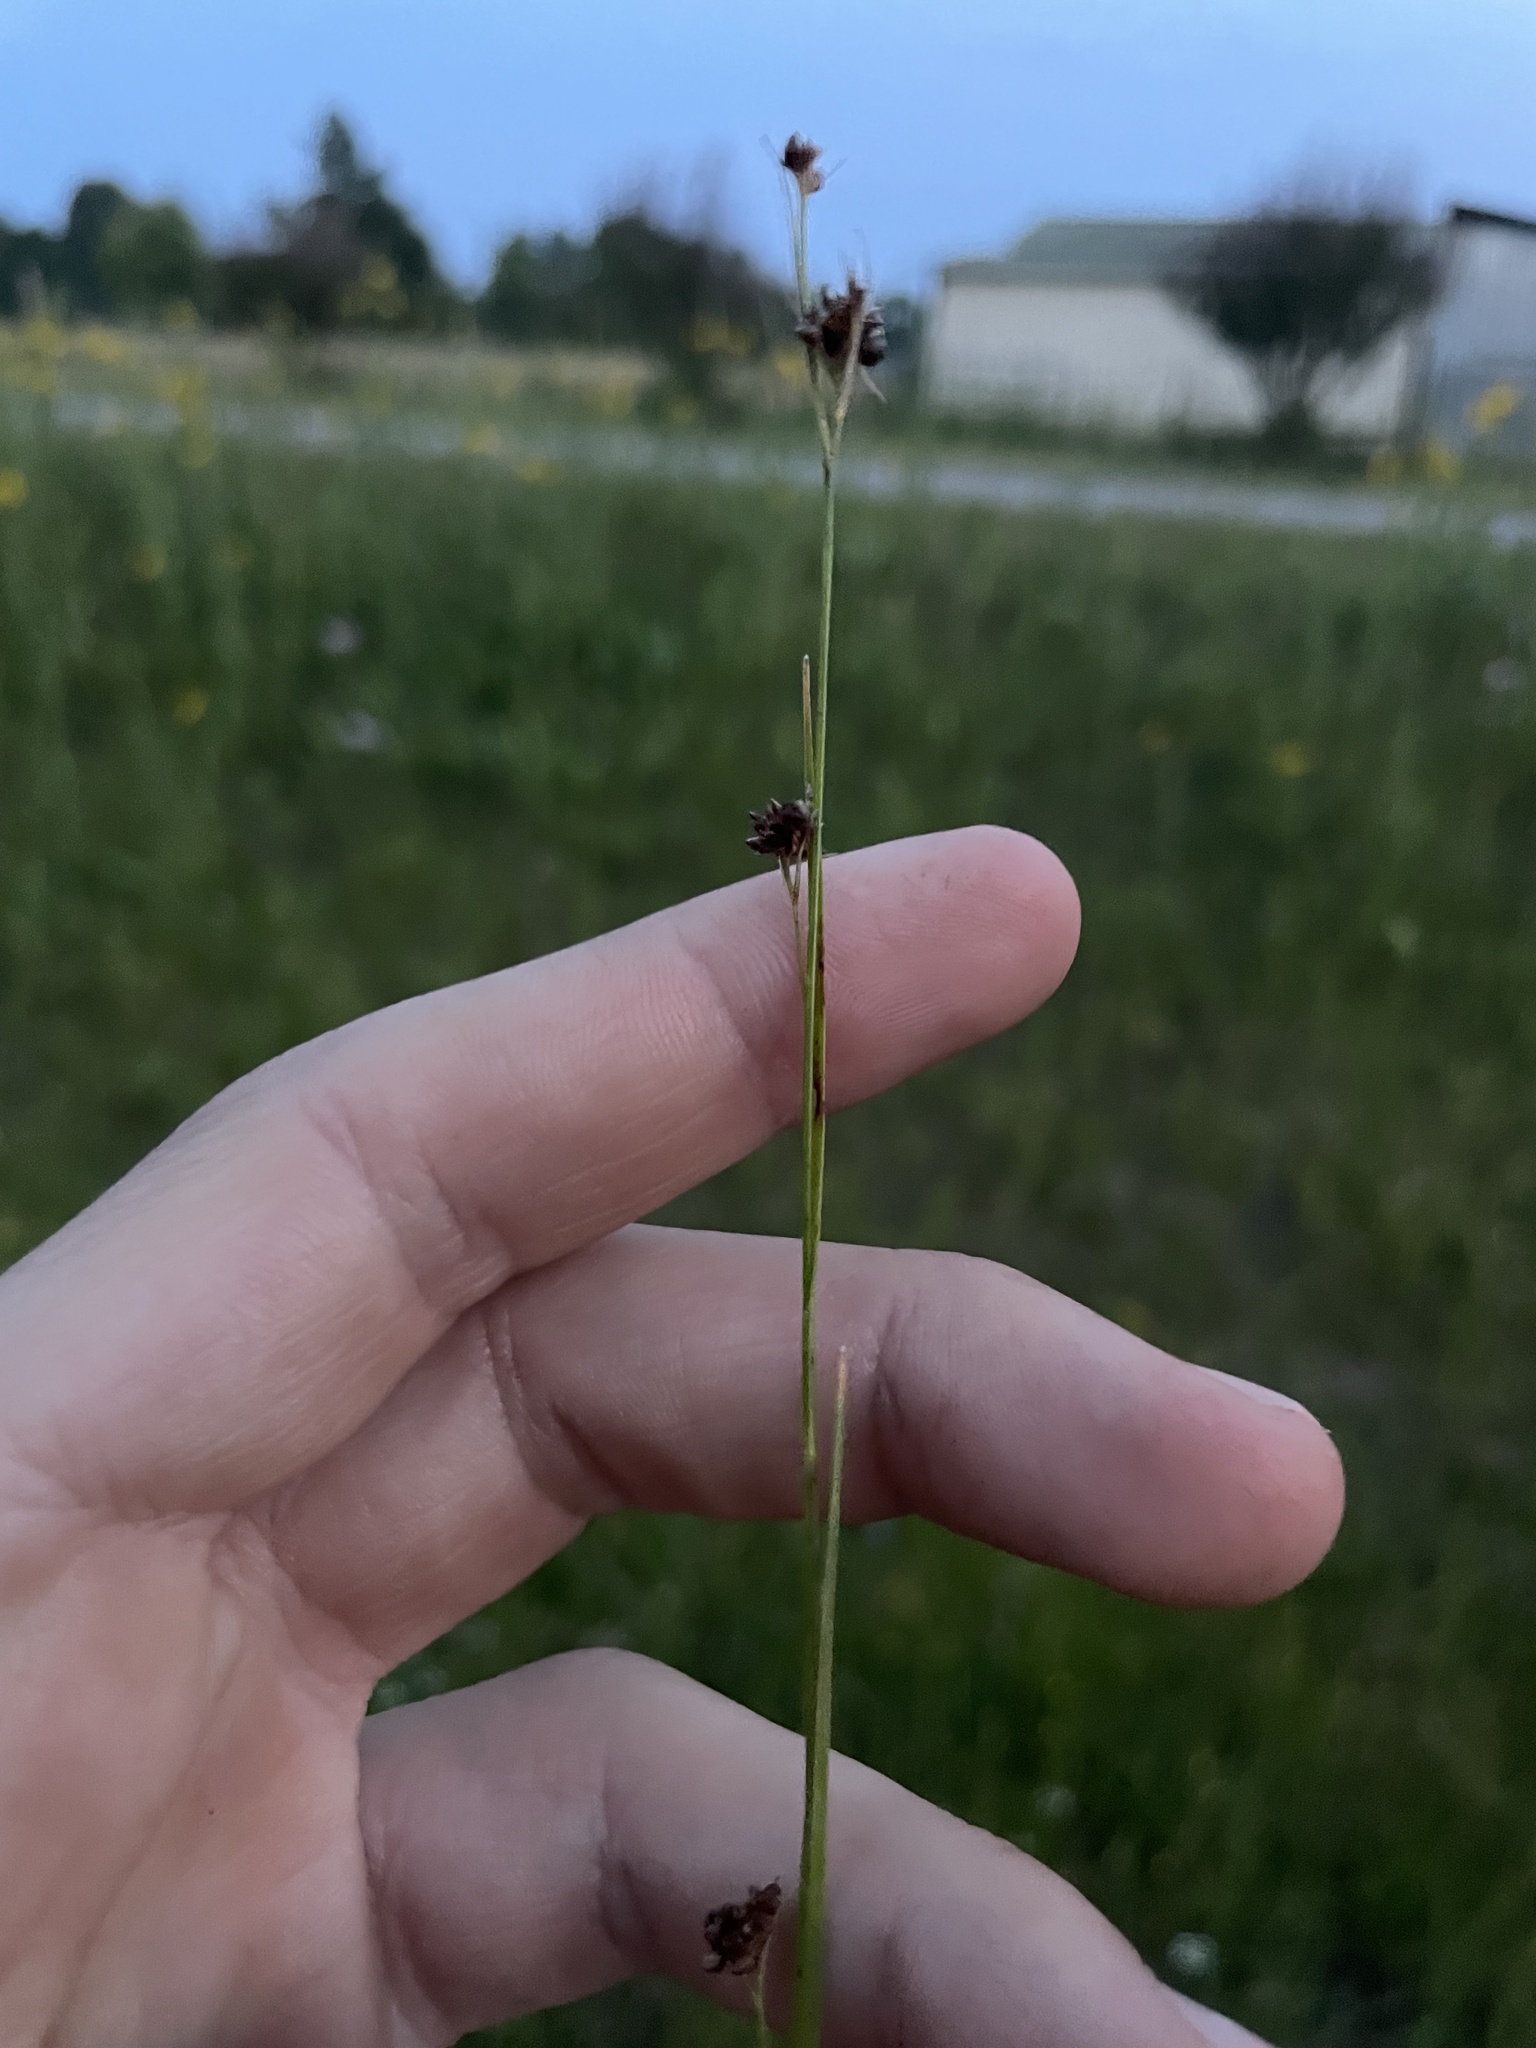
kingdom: Plantae
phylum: Tracheophyta
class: Liliopsida
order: Poales
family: Cyperaceae
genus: Rhynchospora
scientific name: Rhynchospora harveyi
